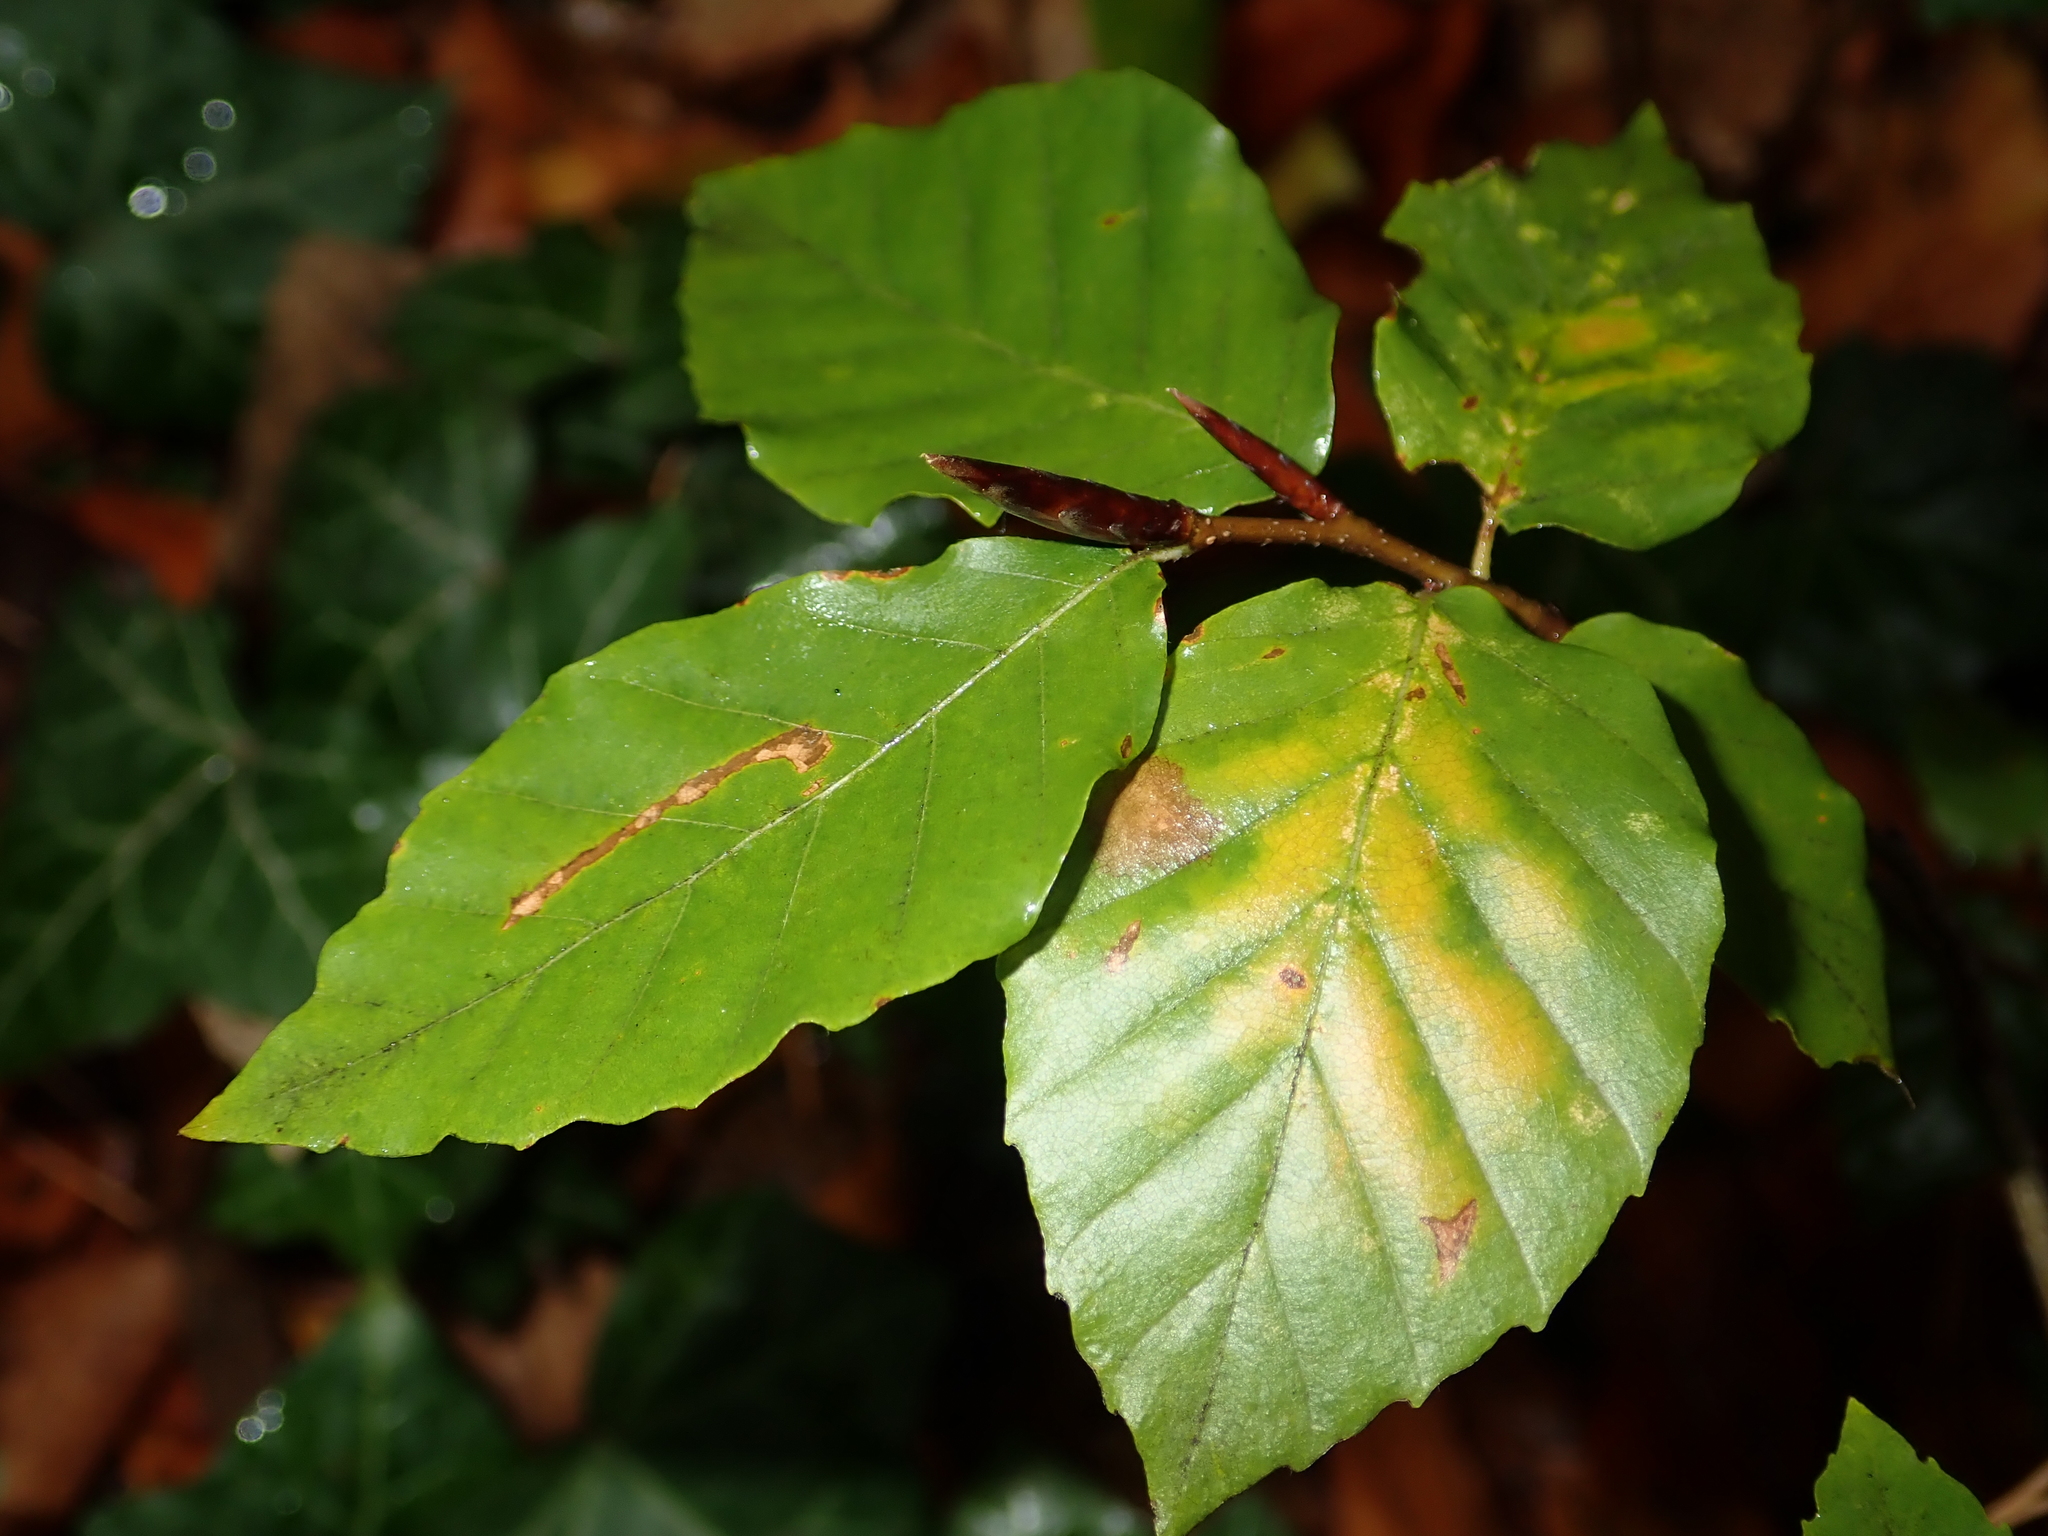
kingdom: Plantae
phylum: Tracheophyta
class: Magnoliopsida
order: Fagales
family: Fagaceae
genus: Fagus
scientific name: Fagus sylvatica
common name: Beech
